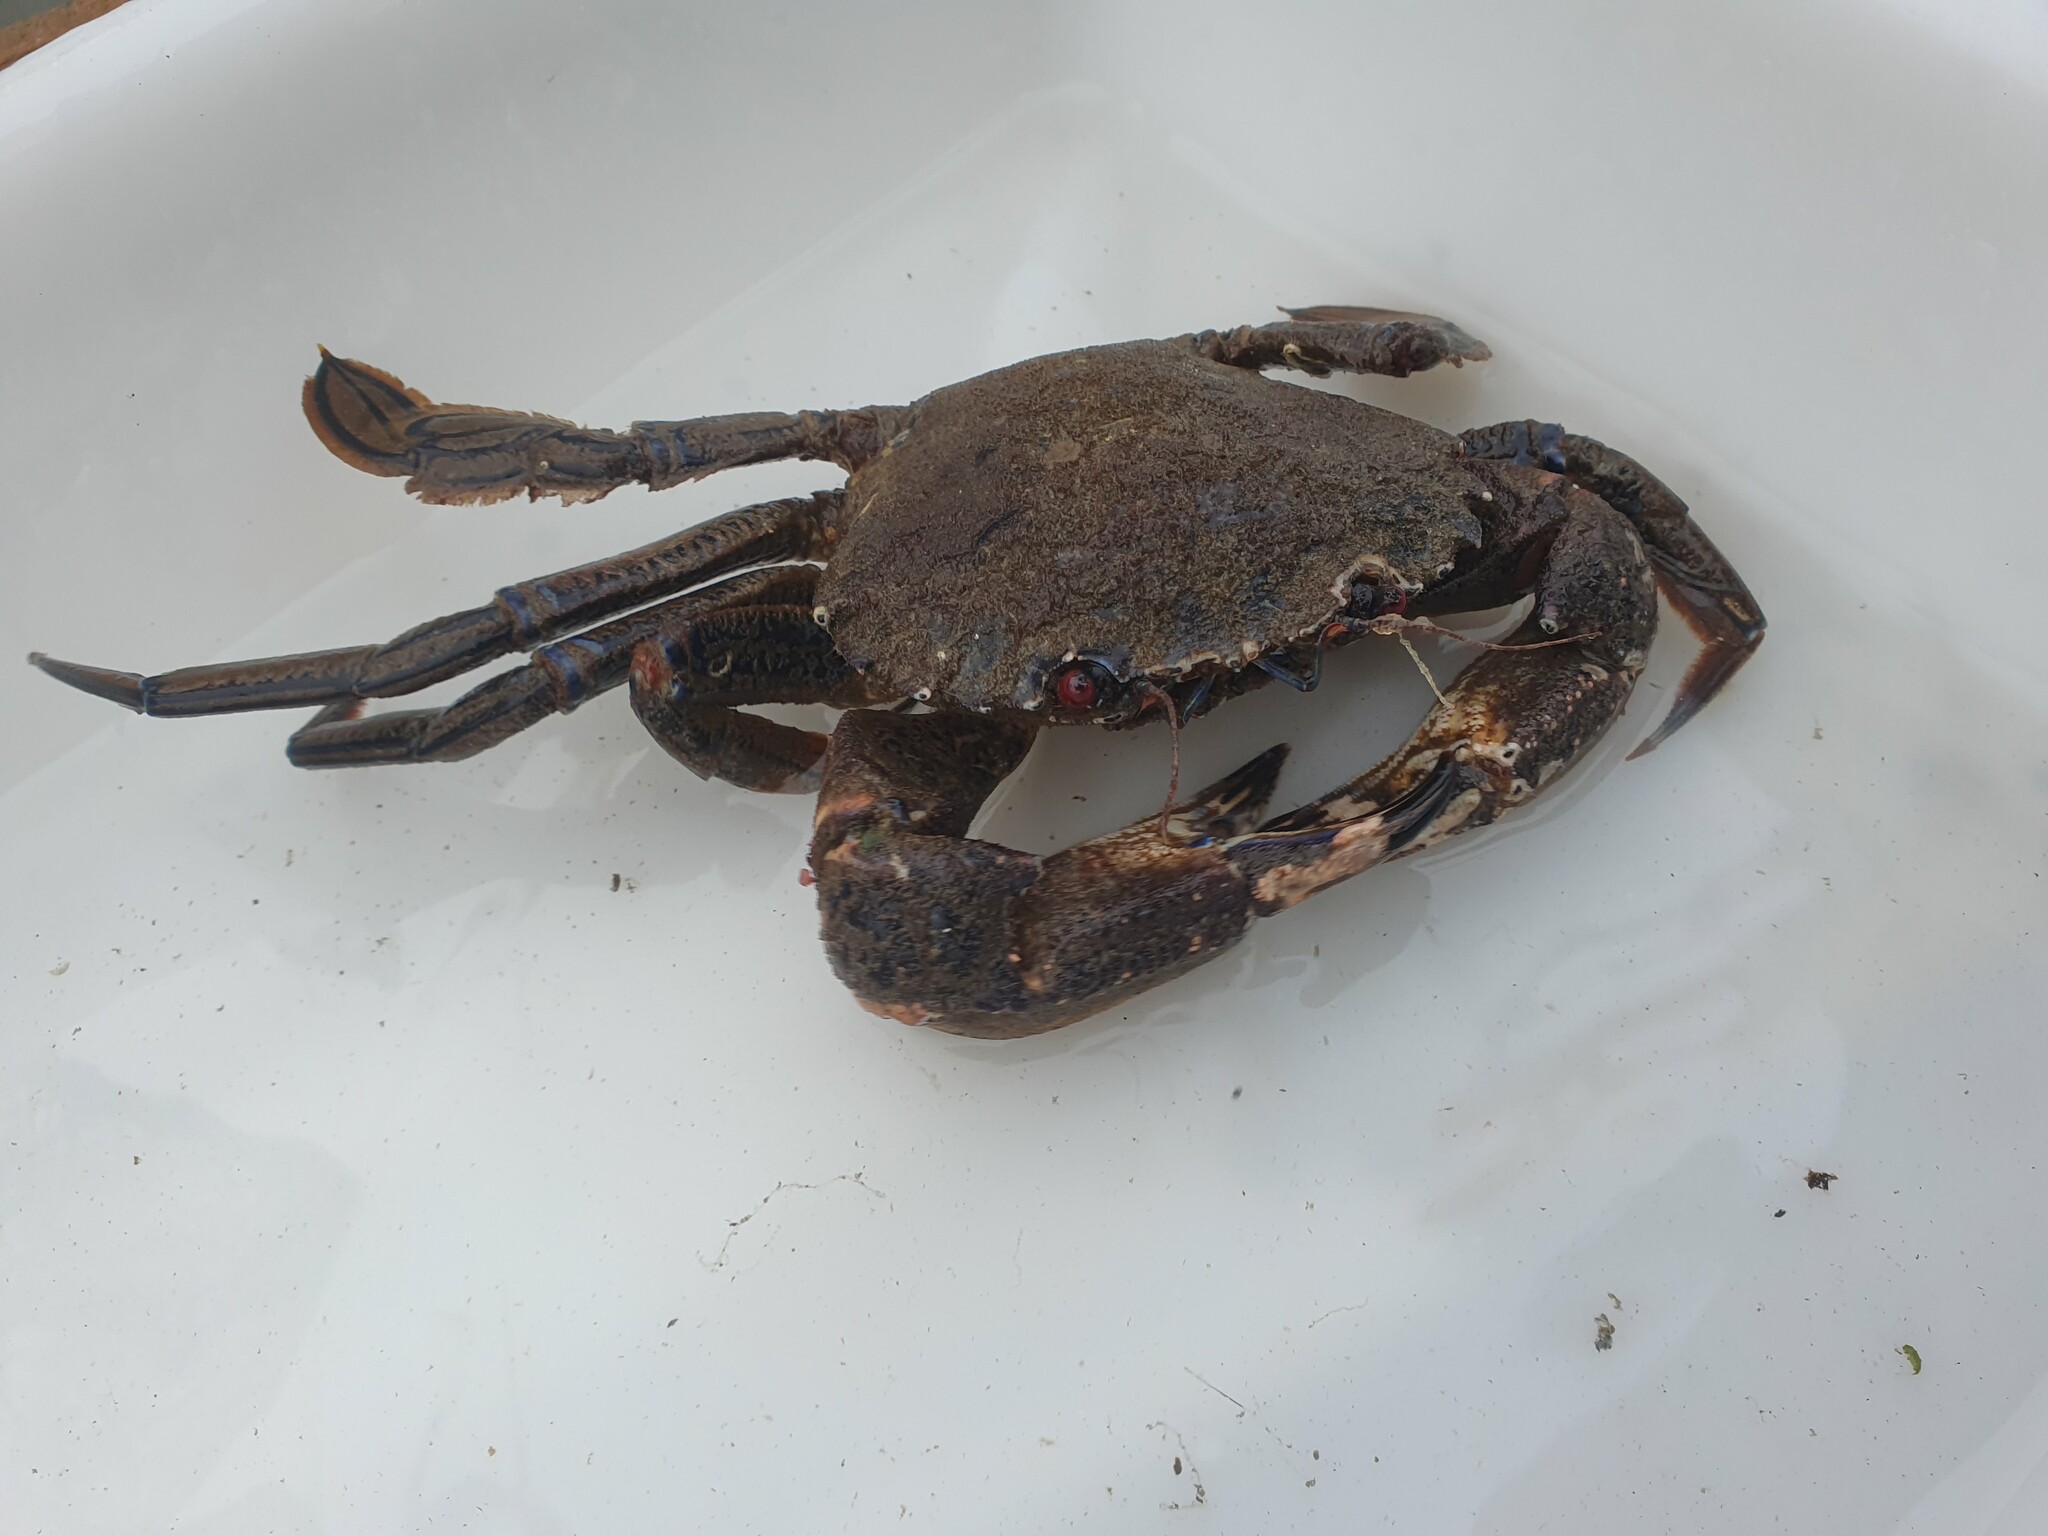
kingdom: Animalia
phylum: Arthropoda
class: Malacostraca
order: Decapoda
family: Polybiidae
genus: Necora
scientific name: Necora puber
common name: Velvet swimming crab
